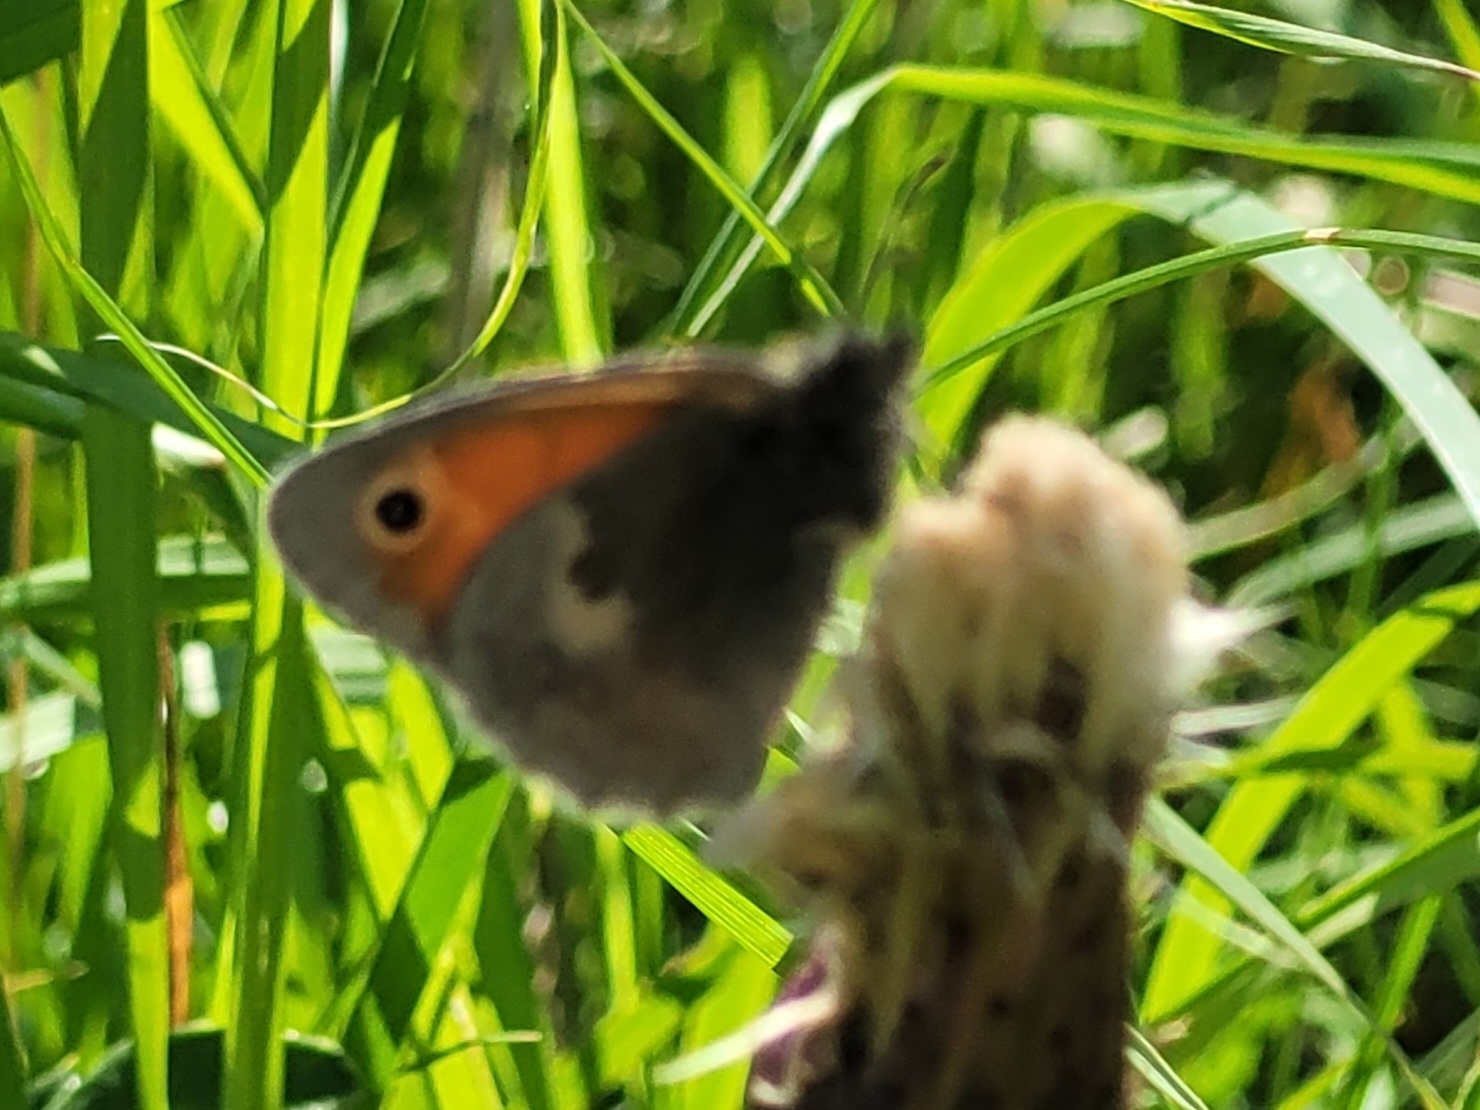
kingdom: Animalia
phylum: Arthropoda
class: Insecta
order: Lepidoptera
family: Nymphalidae
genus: Coenonympha
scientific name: Coenonympha pamphilus
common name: Small heath
